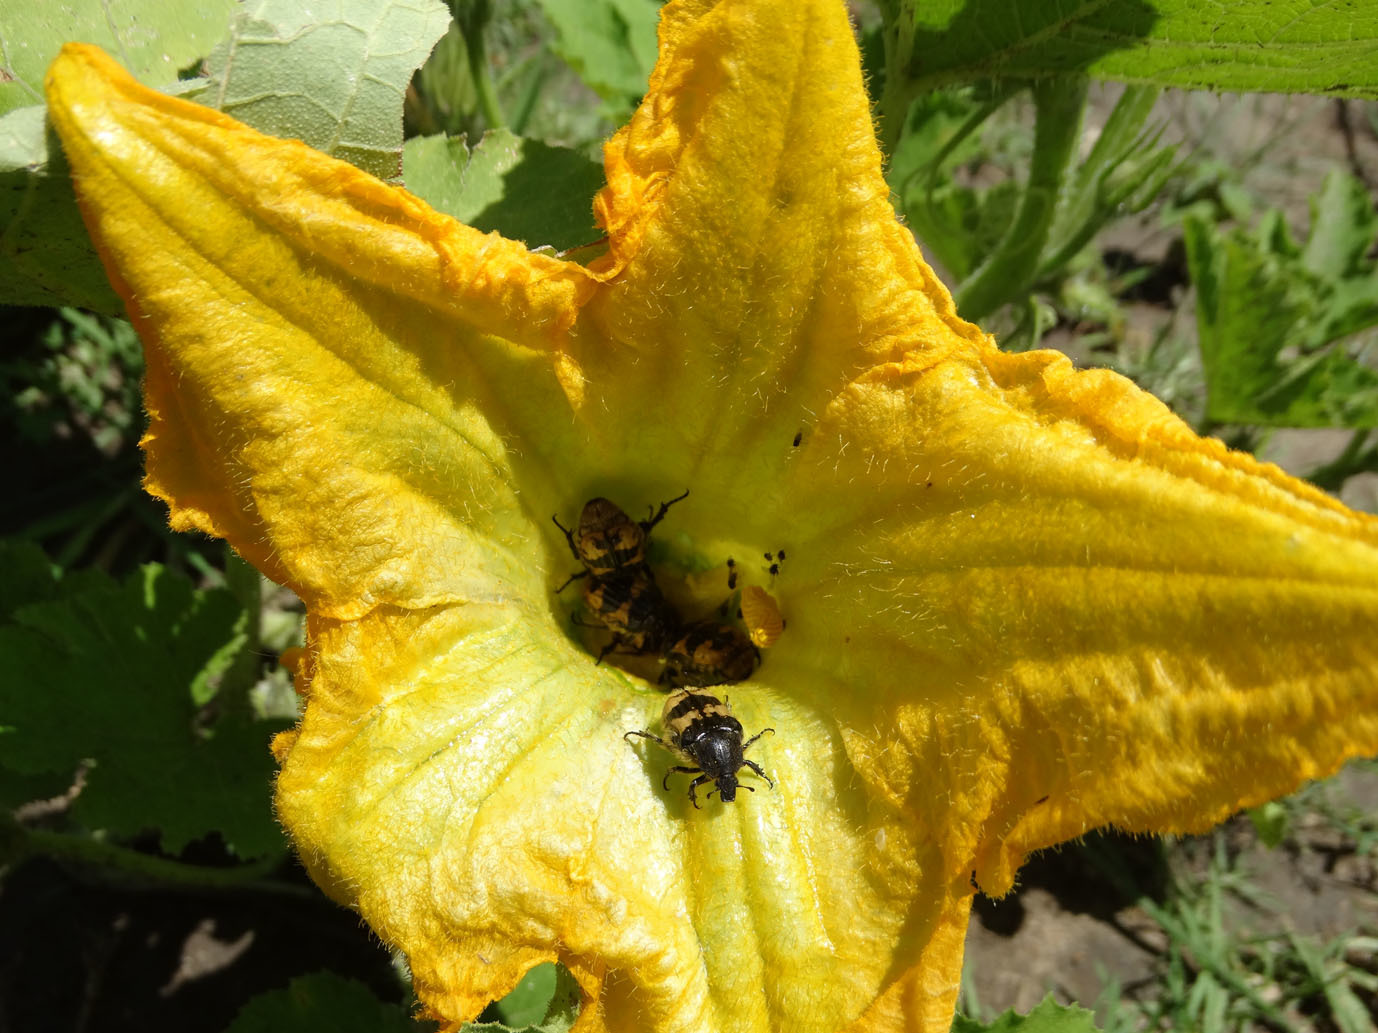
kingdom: Animalia
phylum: Arthropoda
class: Insecta
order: Coleoptera
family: Scarabaeidae
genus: Euphoria
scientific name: Euphoria basalis
